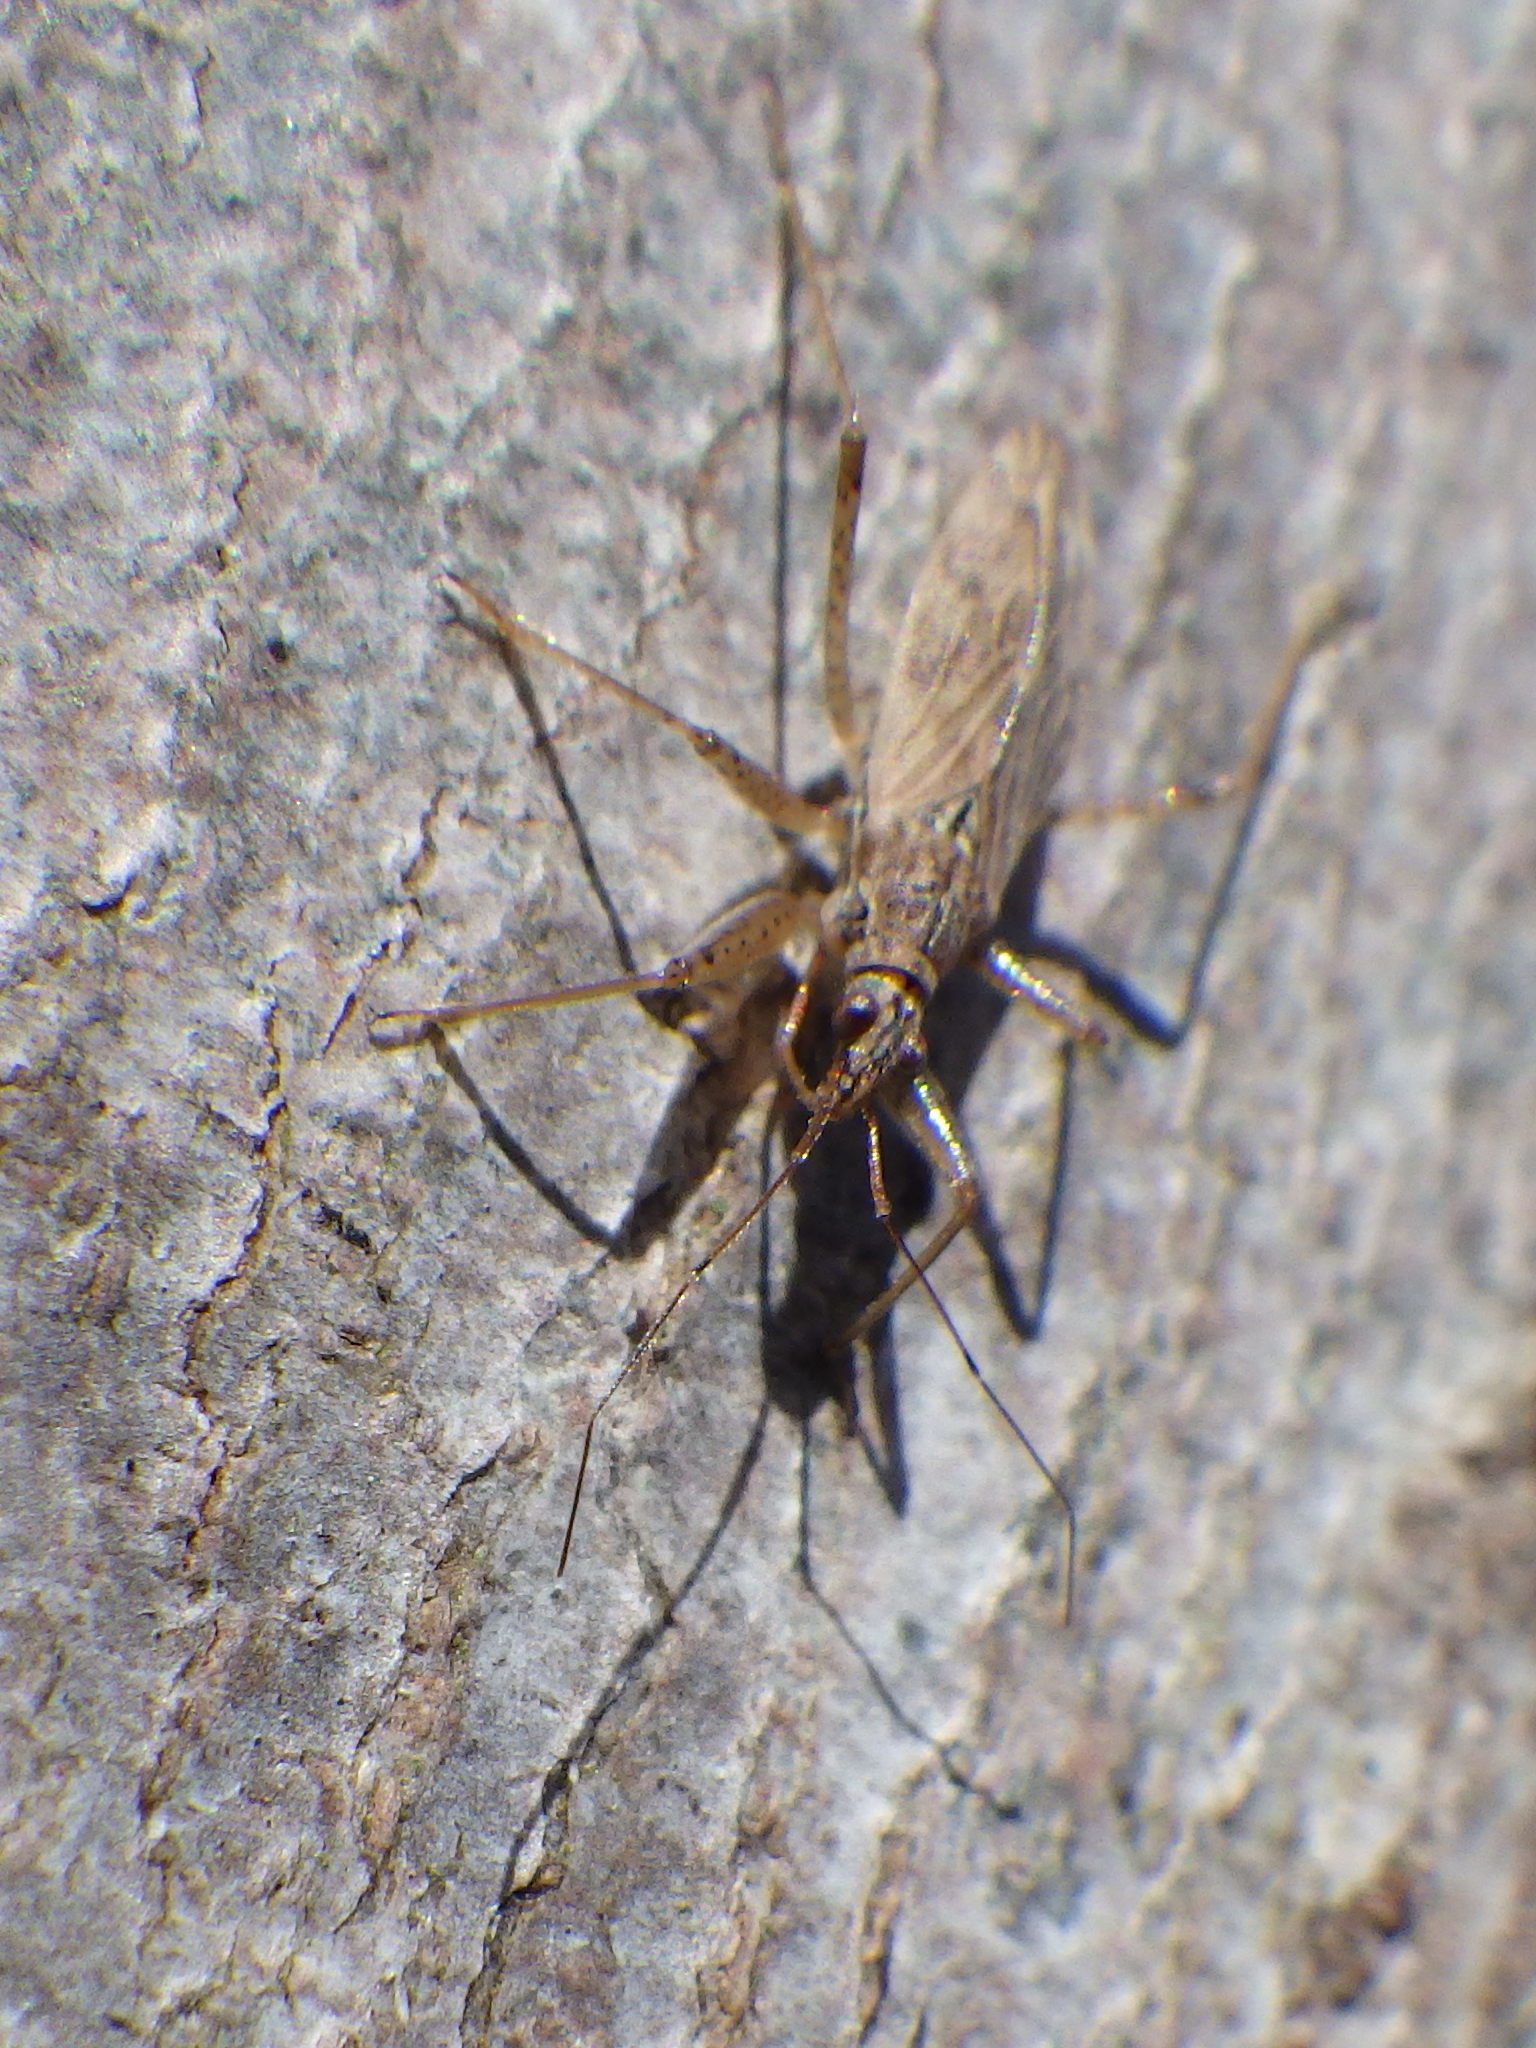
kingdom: Animalia
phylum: Arthropoda
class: Insecta
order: Hemiptera
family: Nabidae
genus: Nabis
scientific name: Nabis roseipennis
